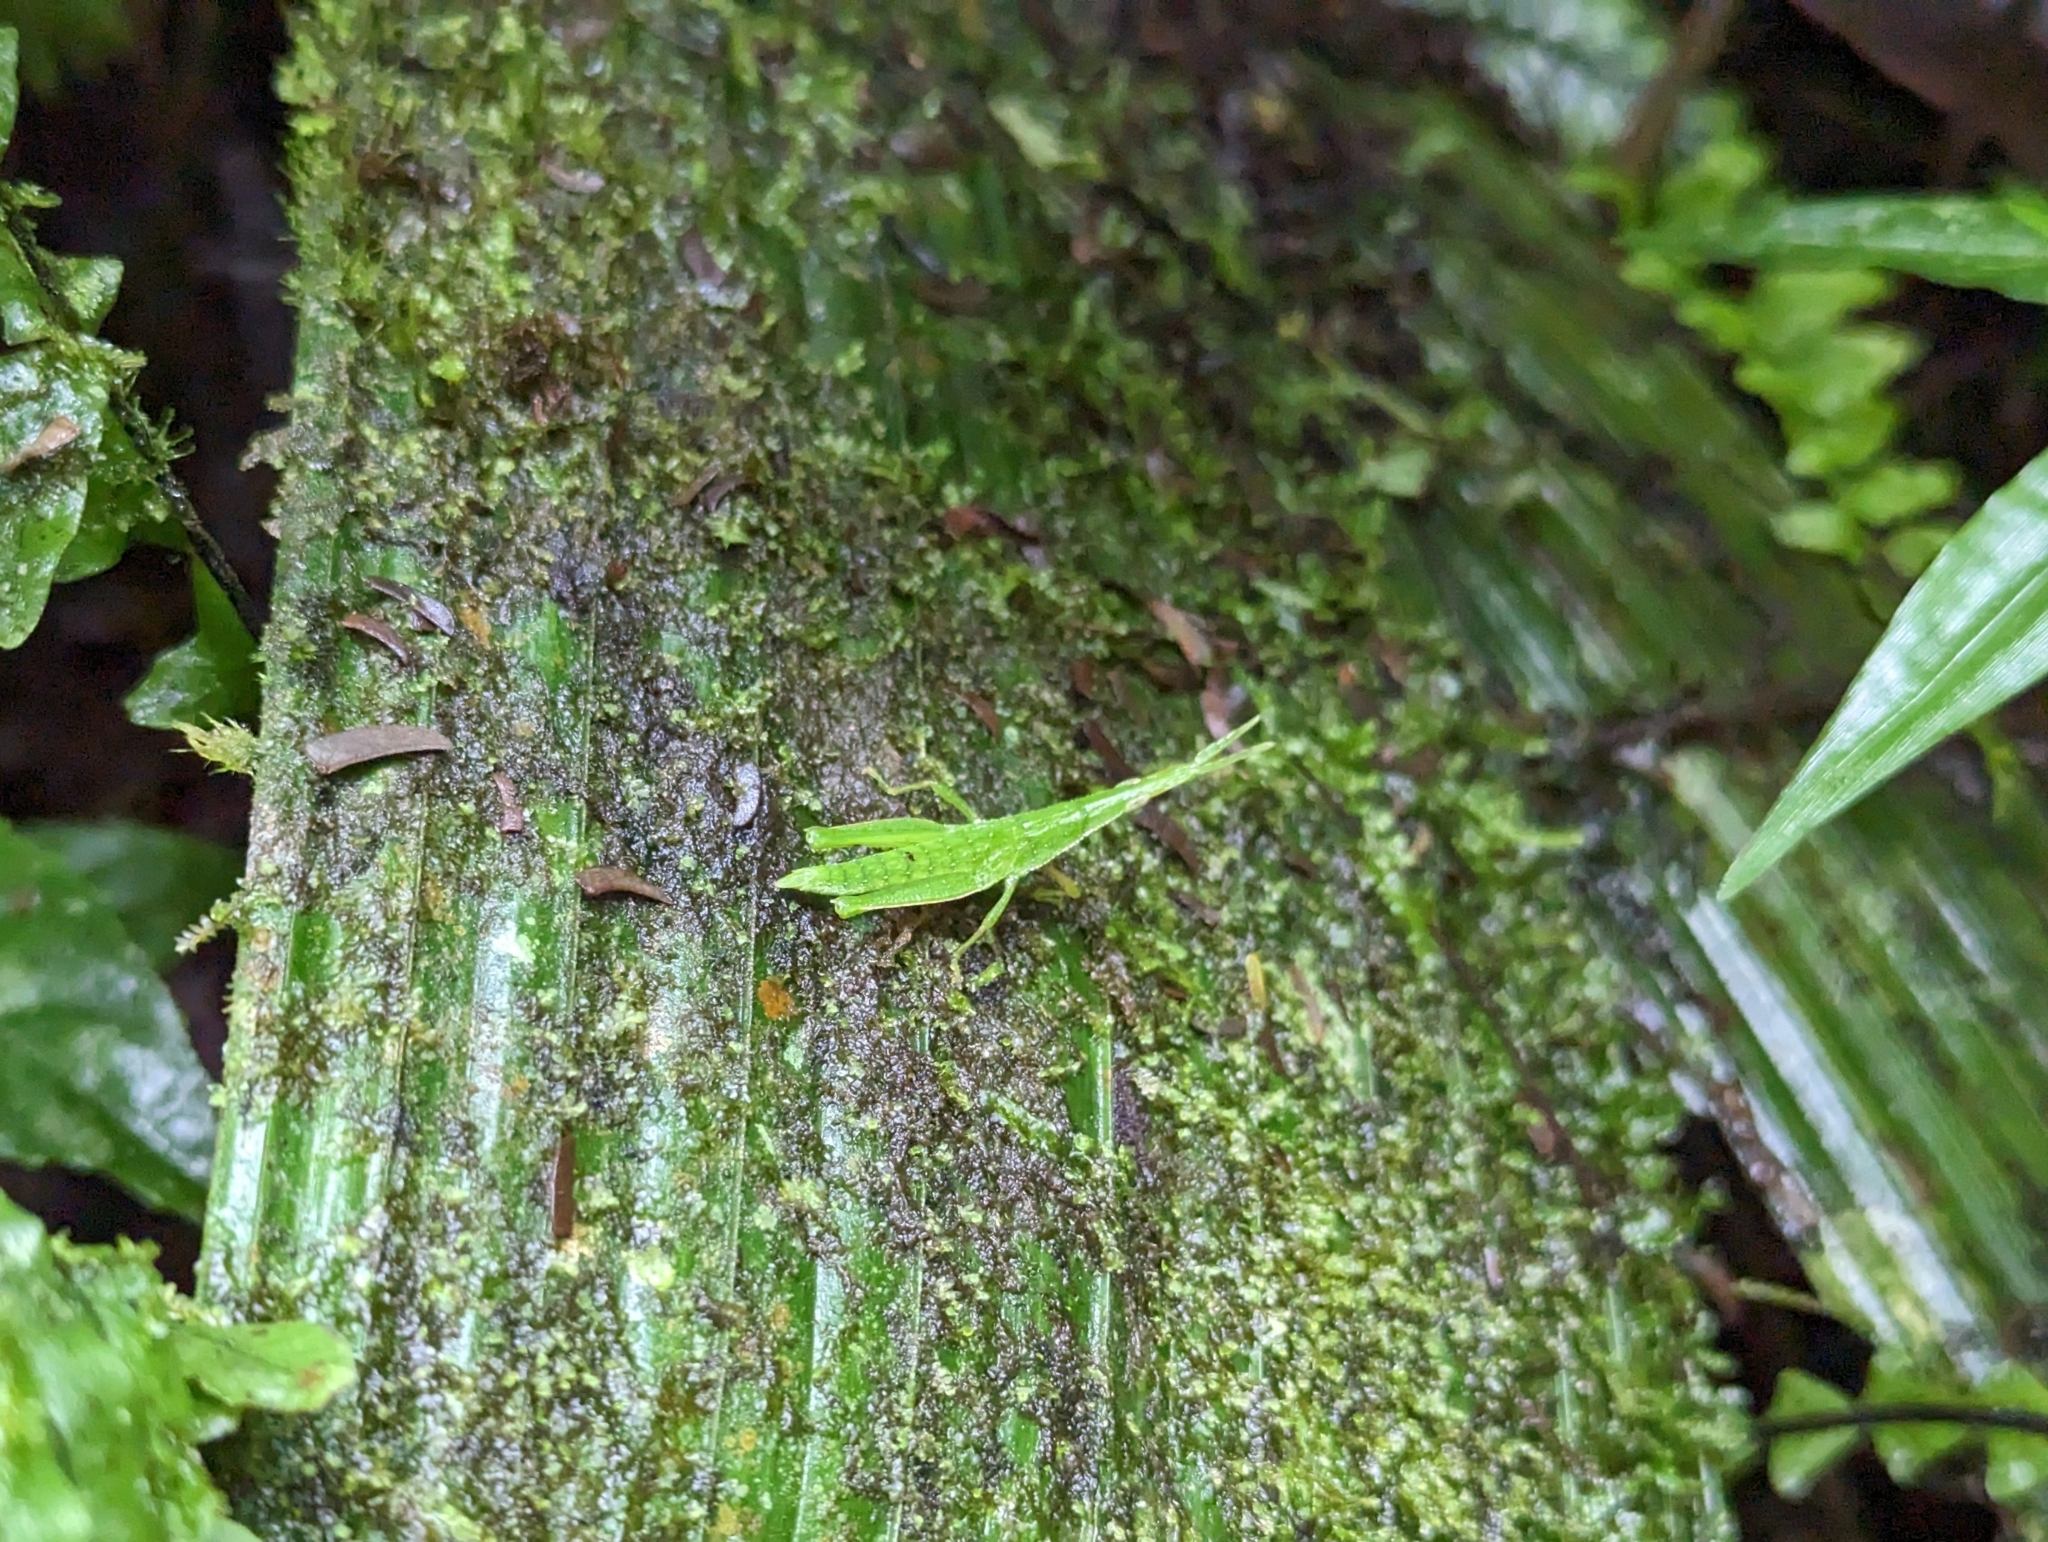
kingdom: Animalia
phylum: Arthropoda
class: Insecta
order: Orthoptera
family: Pyrgomorphidae
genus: Omura
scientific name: Omura congrua
